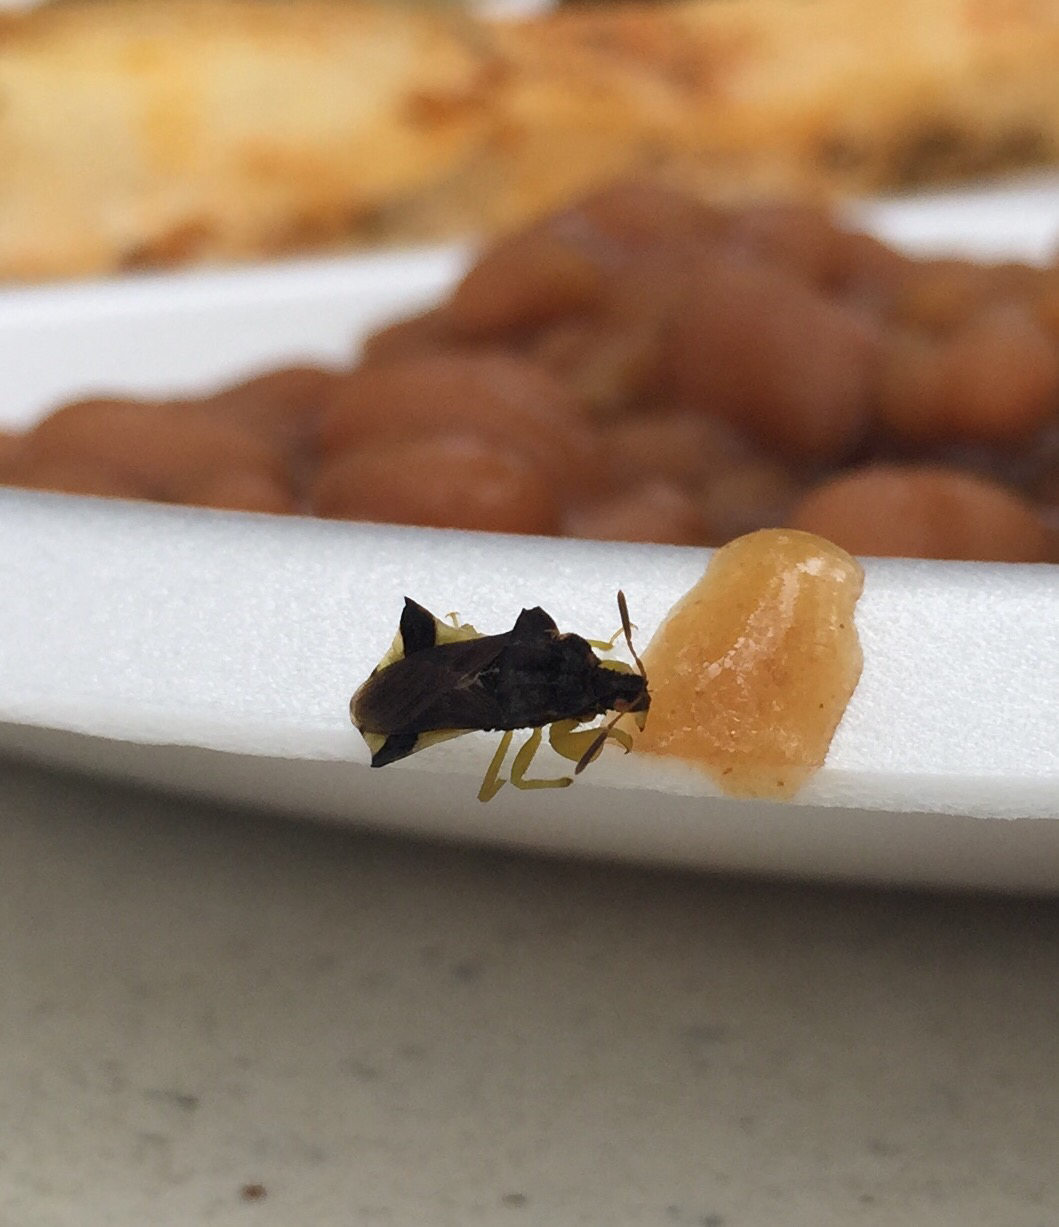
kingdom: Animalia
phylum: Arthropoda
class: Insecta
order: Hemiptera
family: Reduviidae
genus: Phymata
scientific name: Phymata pennsylvanica
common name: Pennsylvania ambush bug
